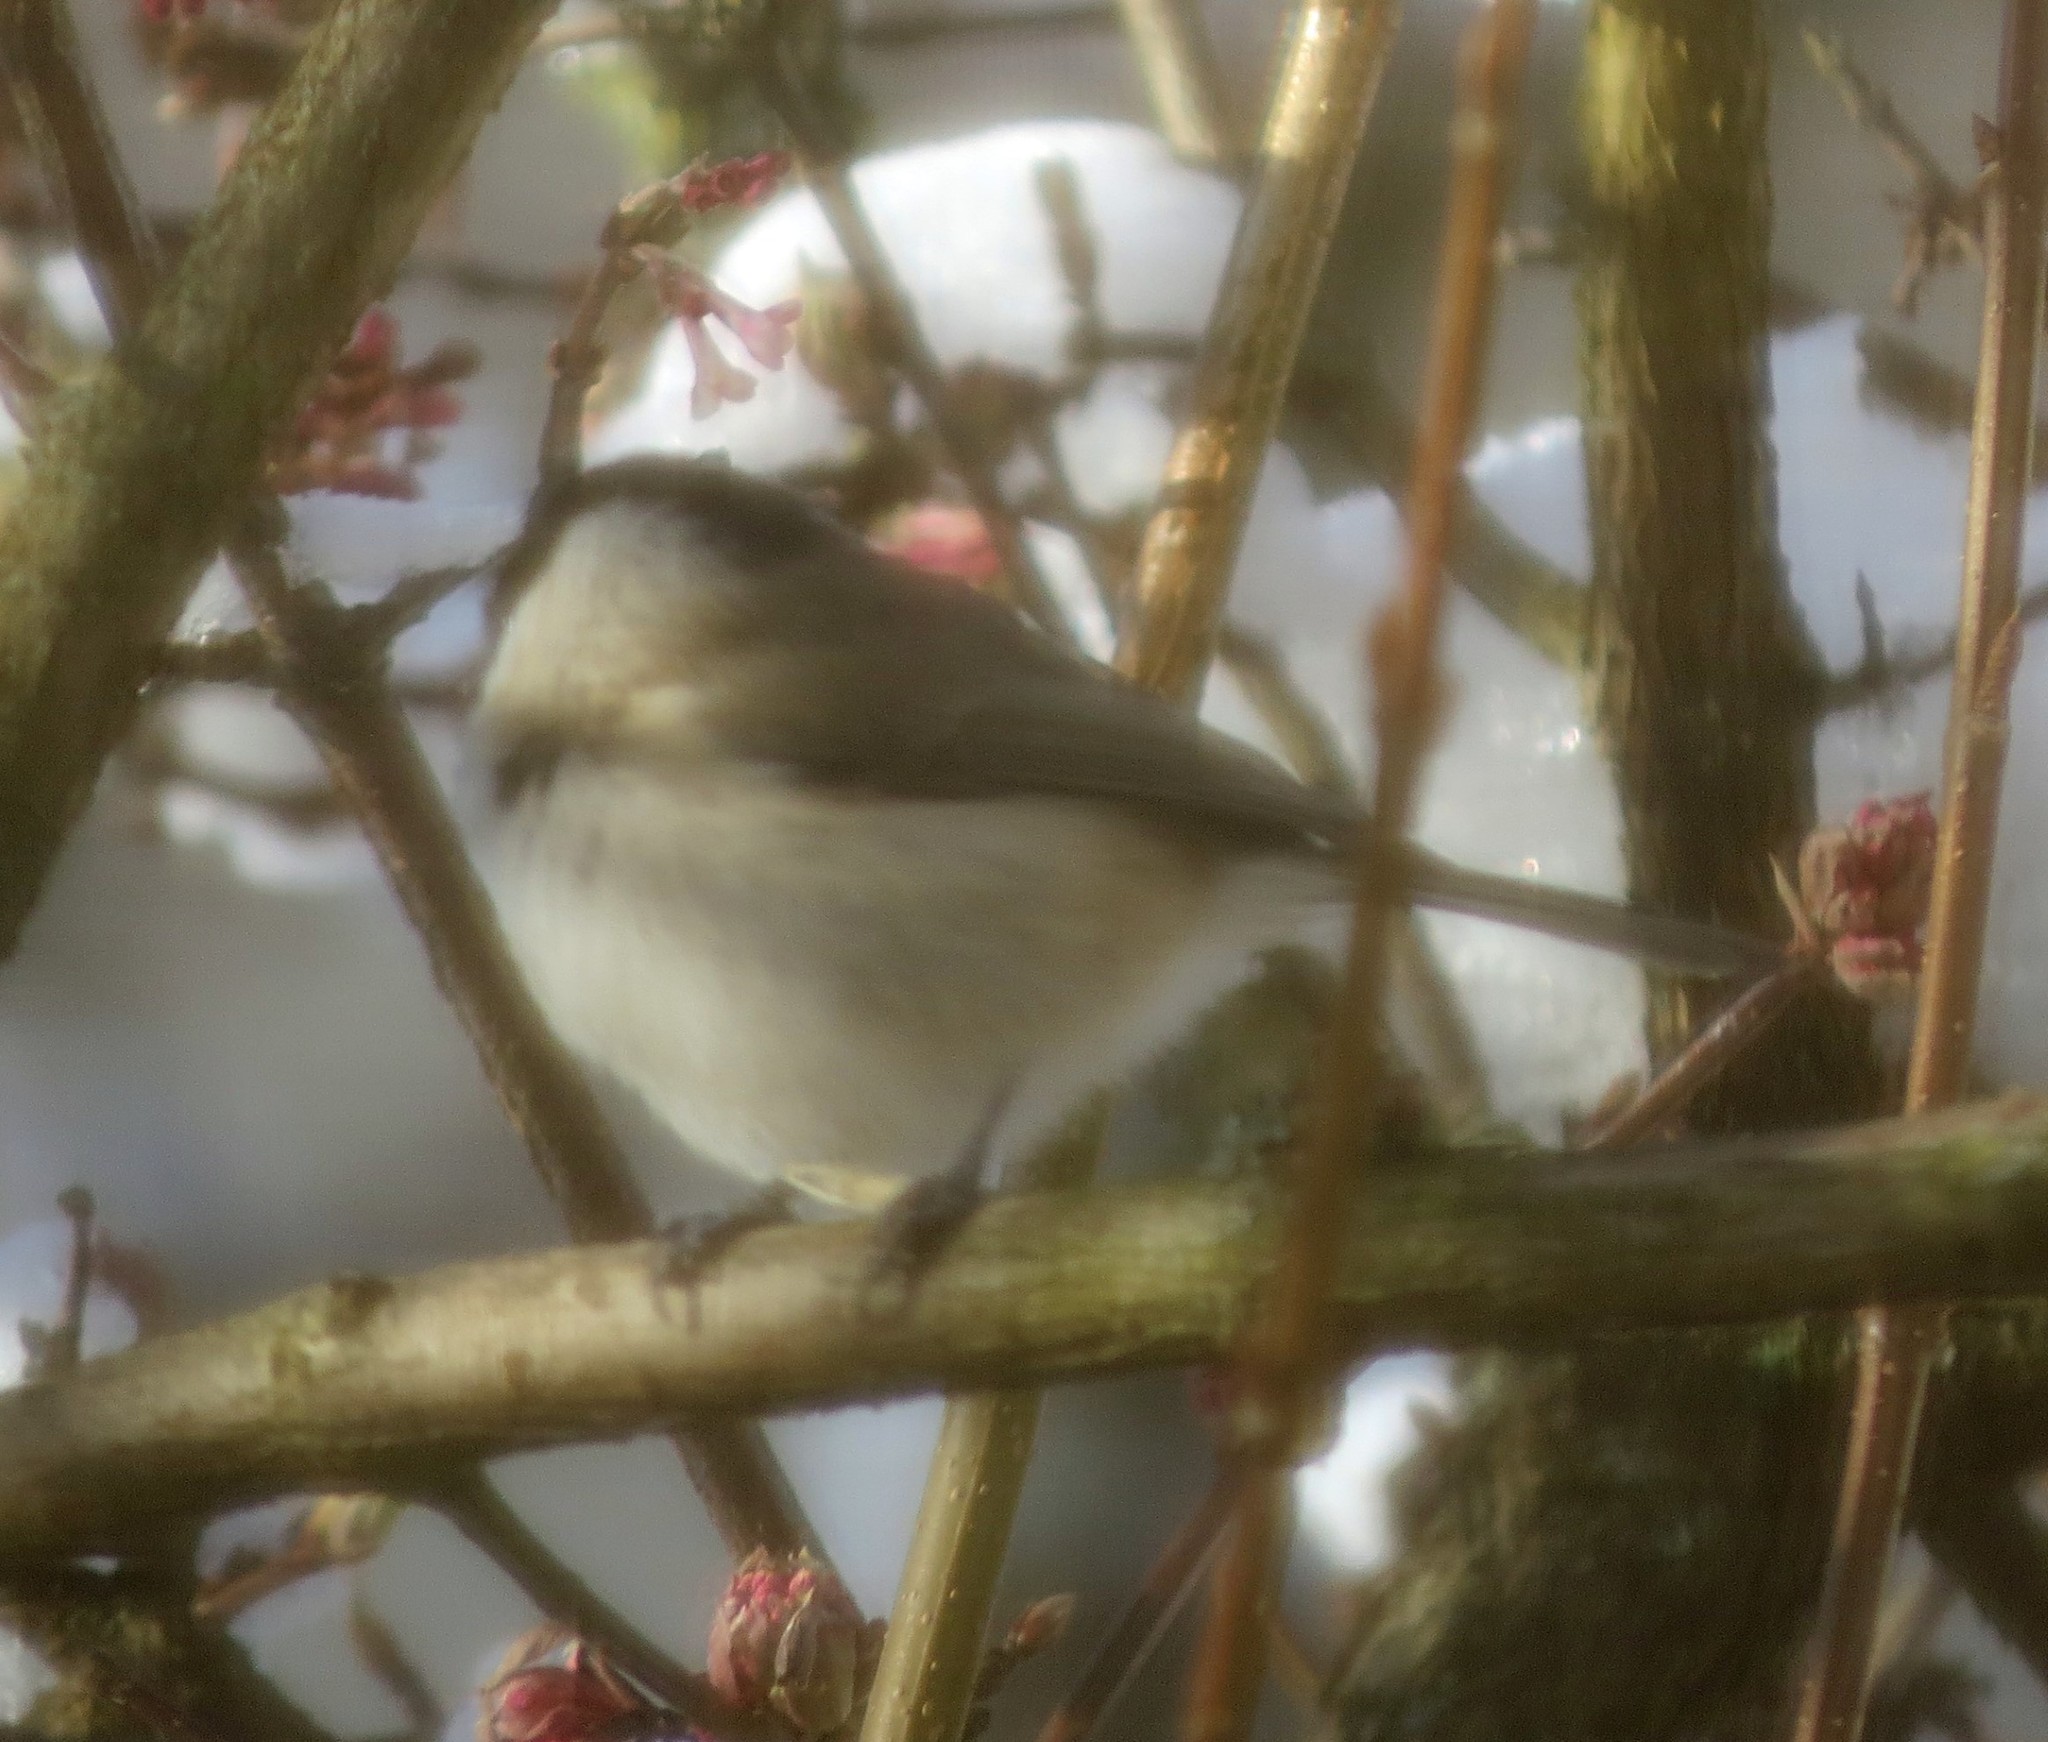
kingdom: Animalia
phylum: Chordata
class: Aves
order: Passeriformes
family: Paridae
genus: Poecile
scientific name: Poecile palustris
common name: Marsh tit
